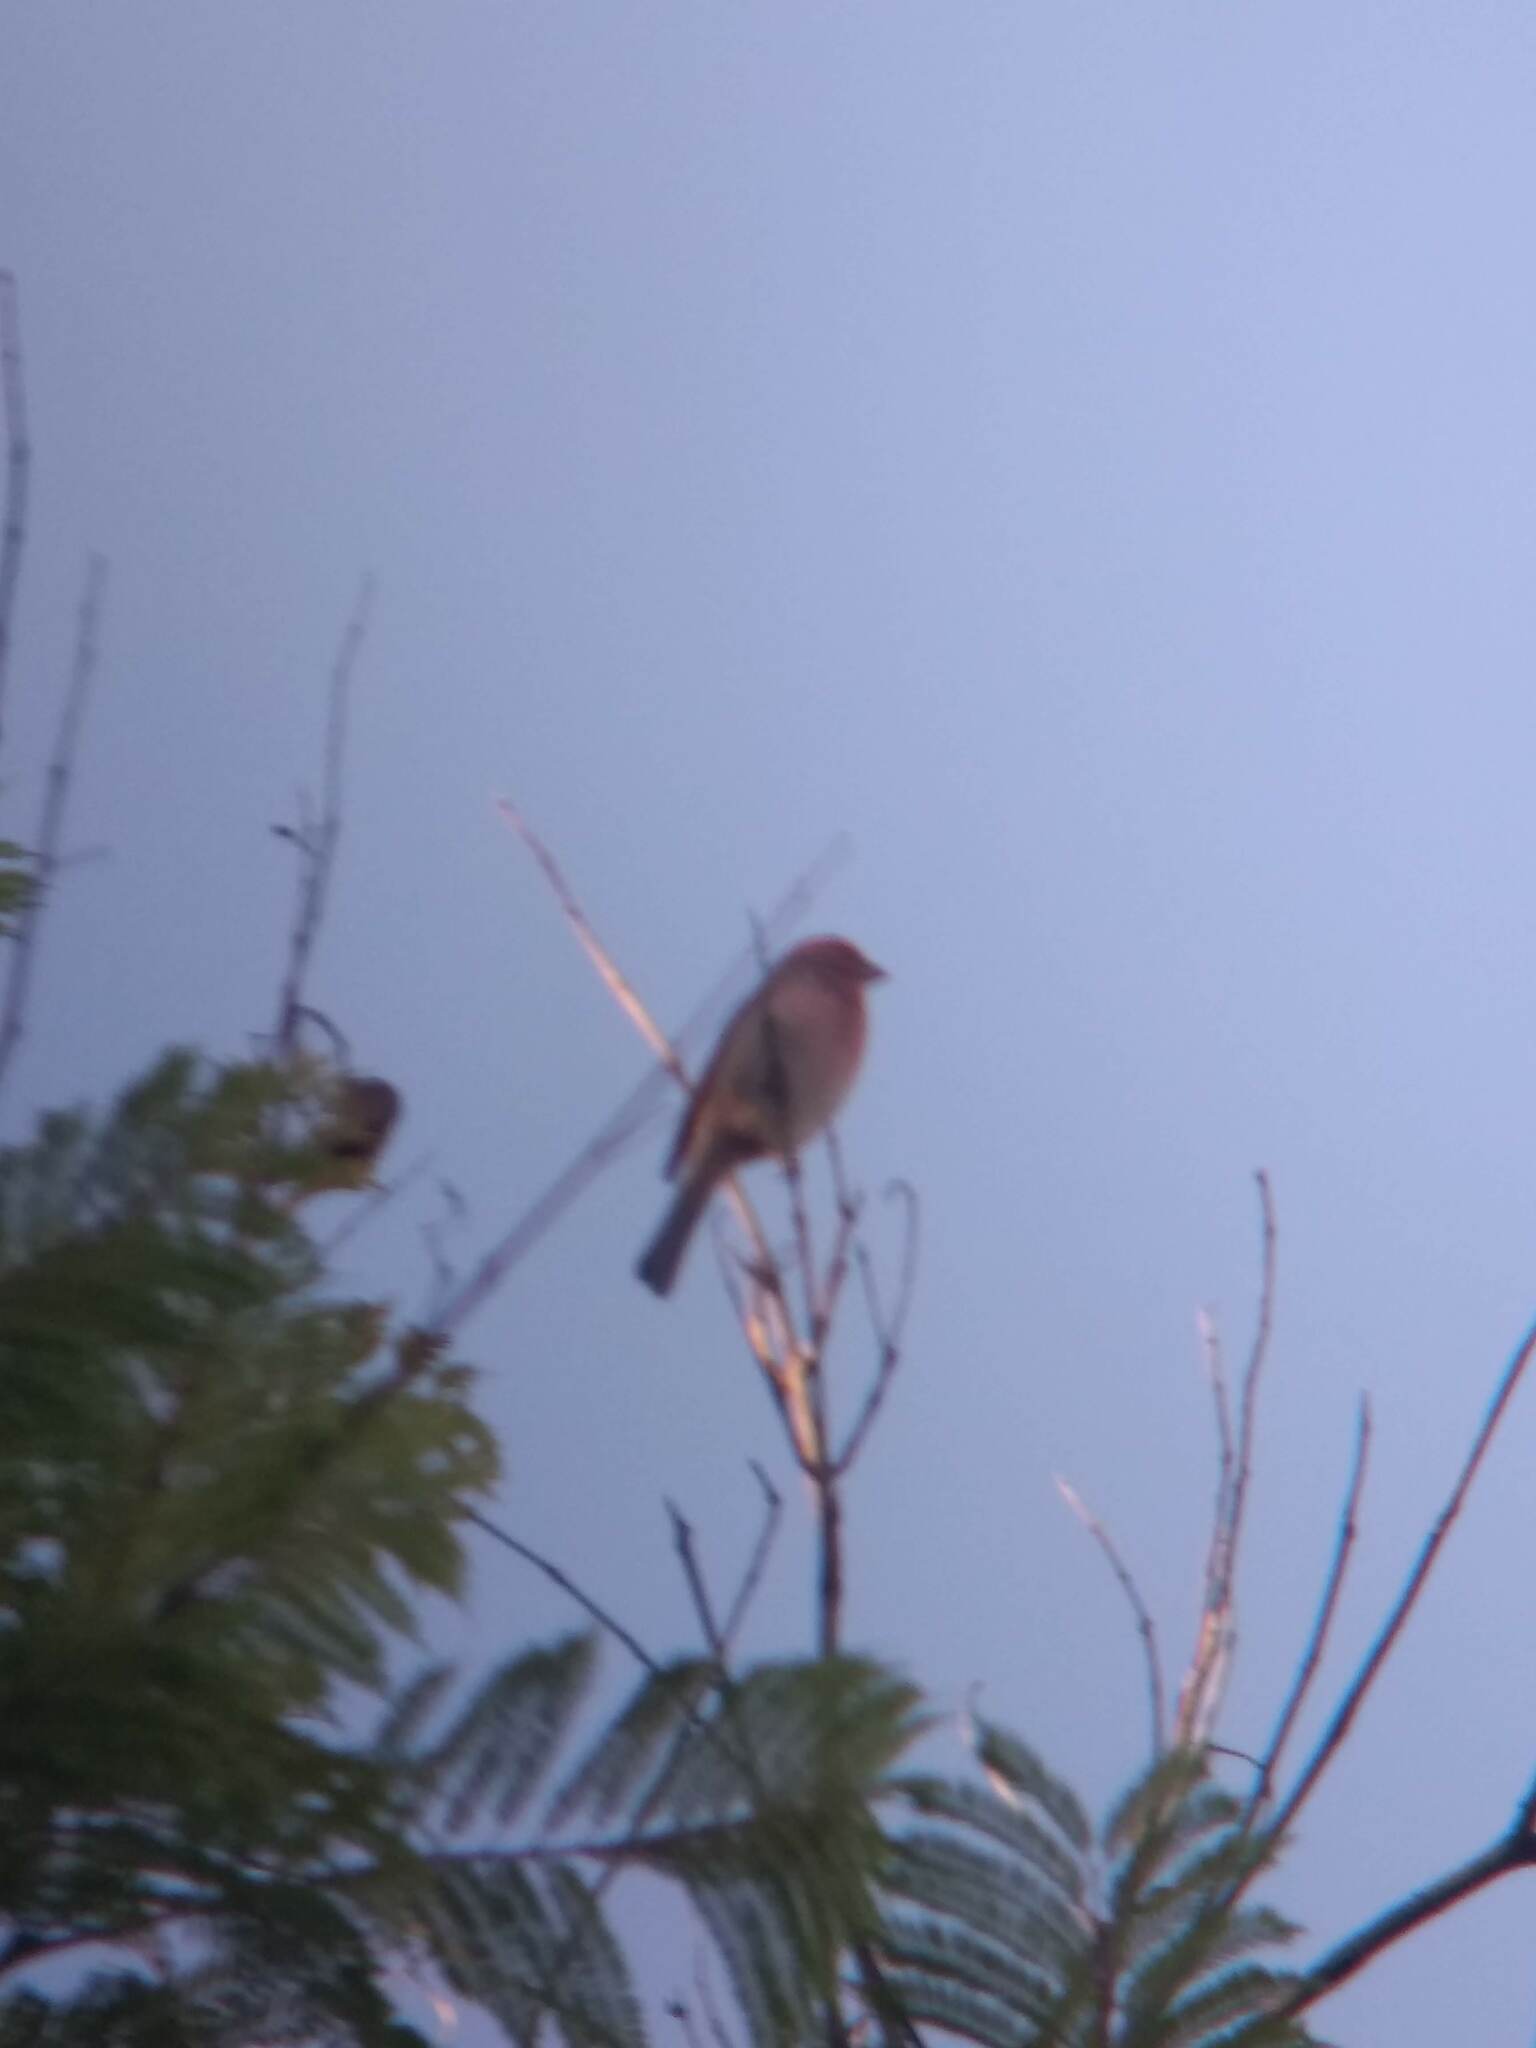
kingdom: Animalia
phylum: Chordata
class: Aves
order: Passeriformes
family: Fringillidae
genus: Haemorhous
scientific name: Haemorhous mexicanus
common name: House finch
